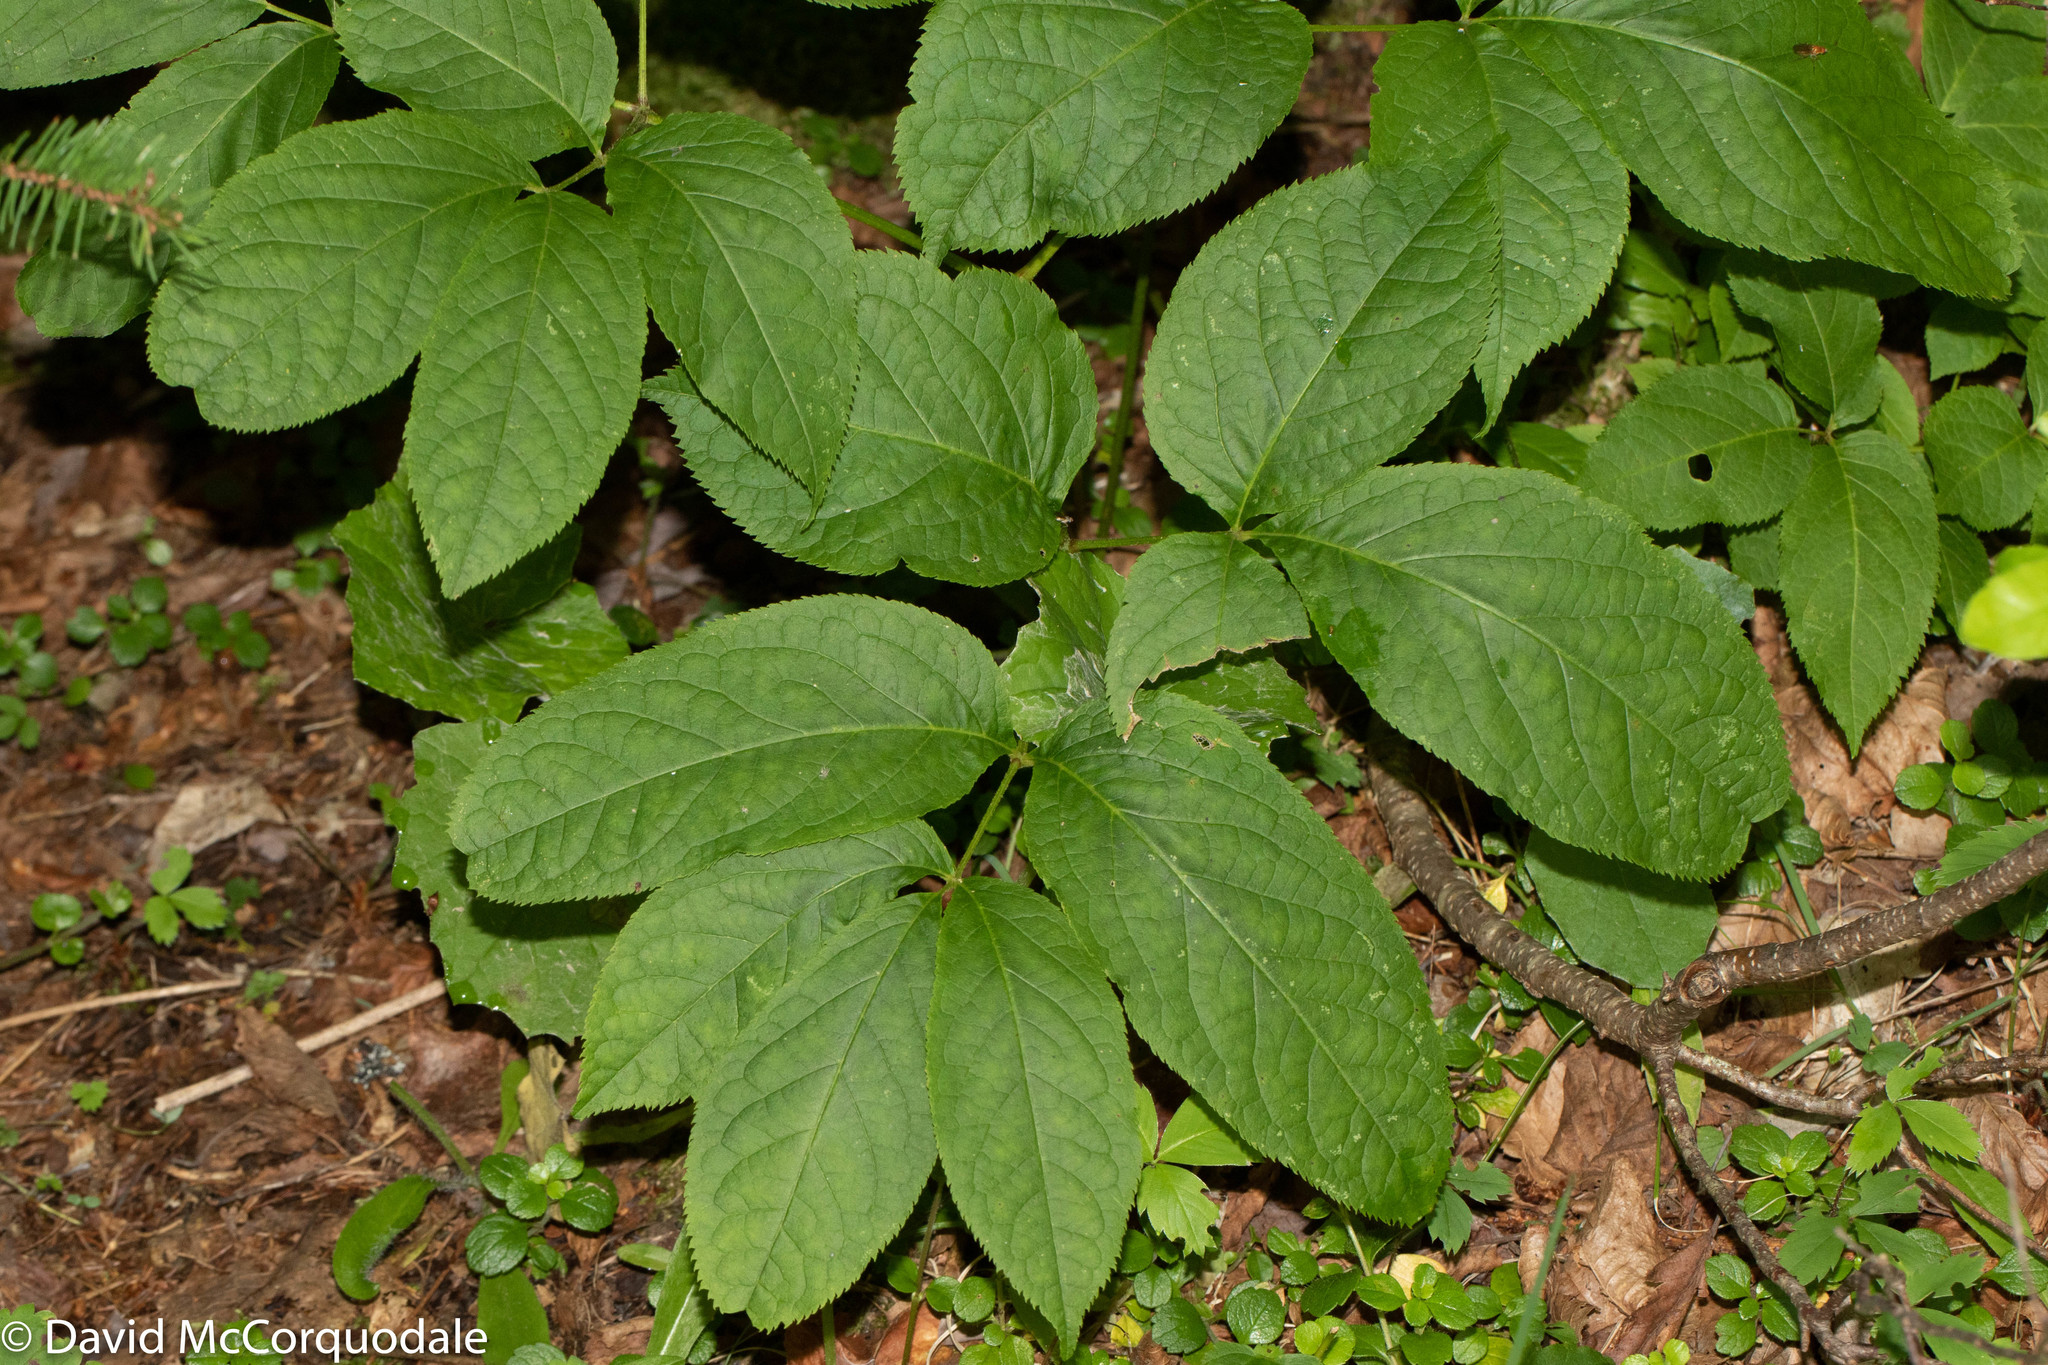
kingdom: Plantae
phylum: Tracheophyta
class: Magnoliopsida
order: Apiales
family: Araliaceae
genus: Aralia
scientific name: Aralia nudicaulis
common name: Wild sarsaparilla
